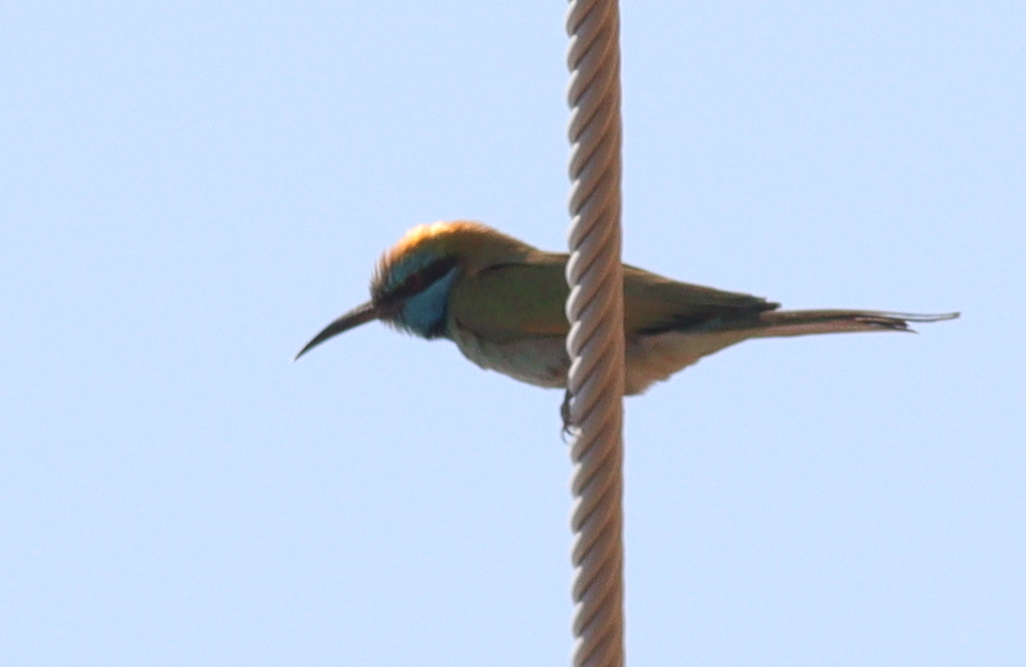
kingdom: Animalia
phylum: Chordata
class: Aves
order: Coraciiformes
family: Meropidae
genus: Merops
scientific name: Merops cyanophrys
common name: Arabian green bee-eater
